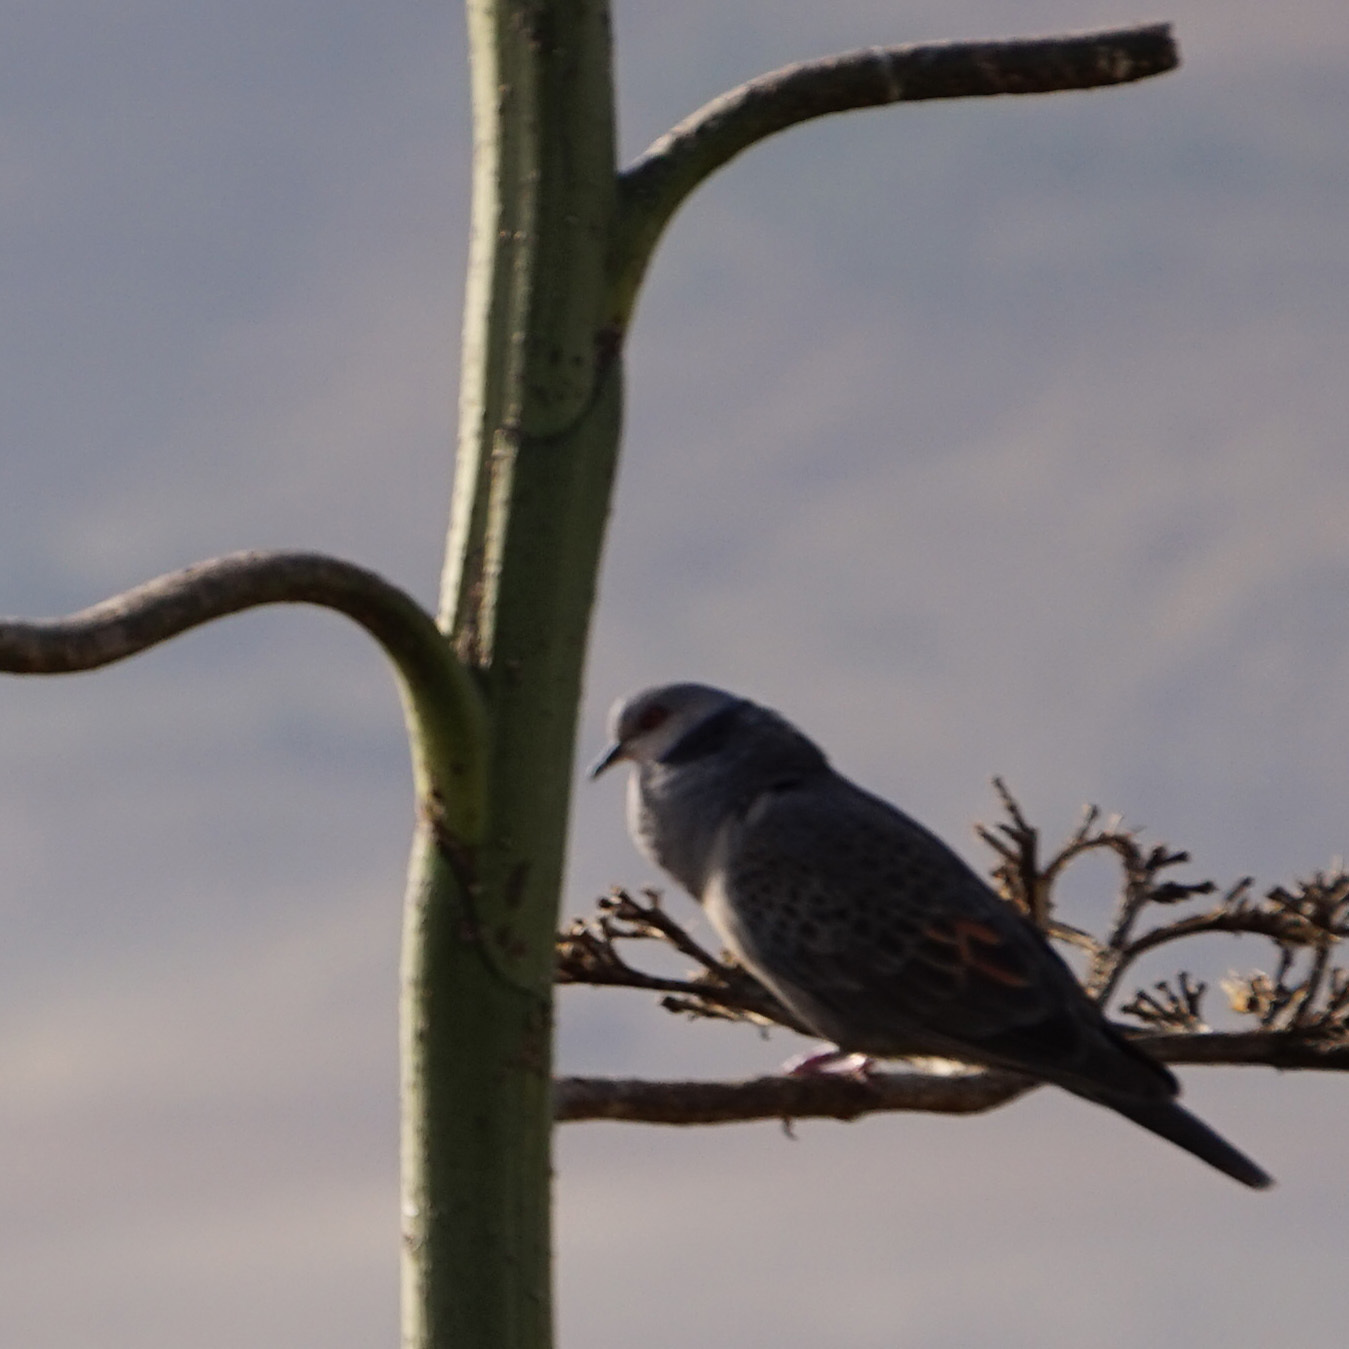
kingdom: Animalia
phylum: Chordata
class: Aves
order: Columbiformes
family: Columbidae
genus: Streptopelia
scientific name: Streptopelia lugens
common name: Dusky turtle dove
